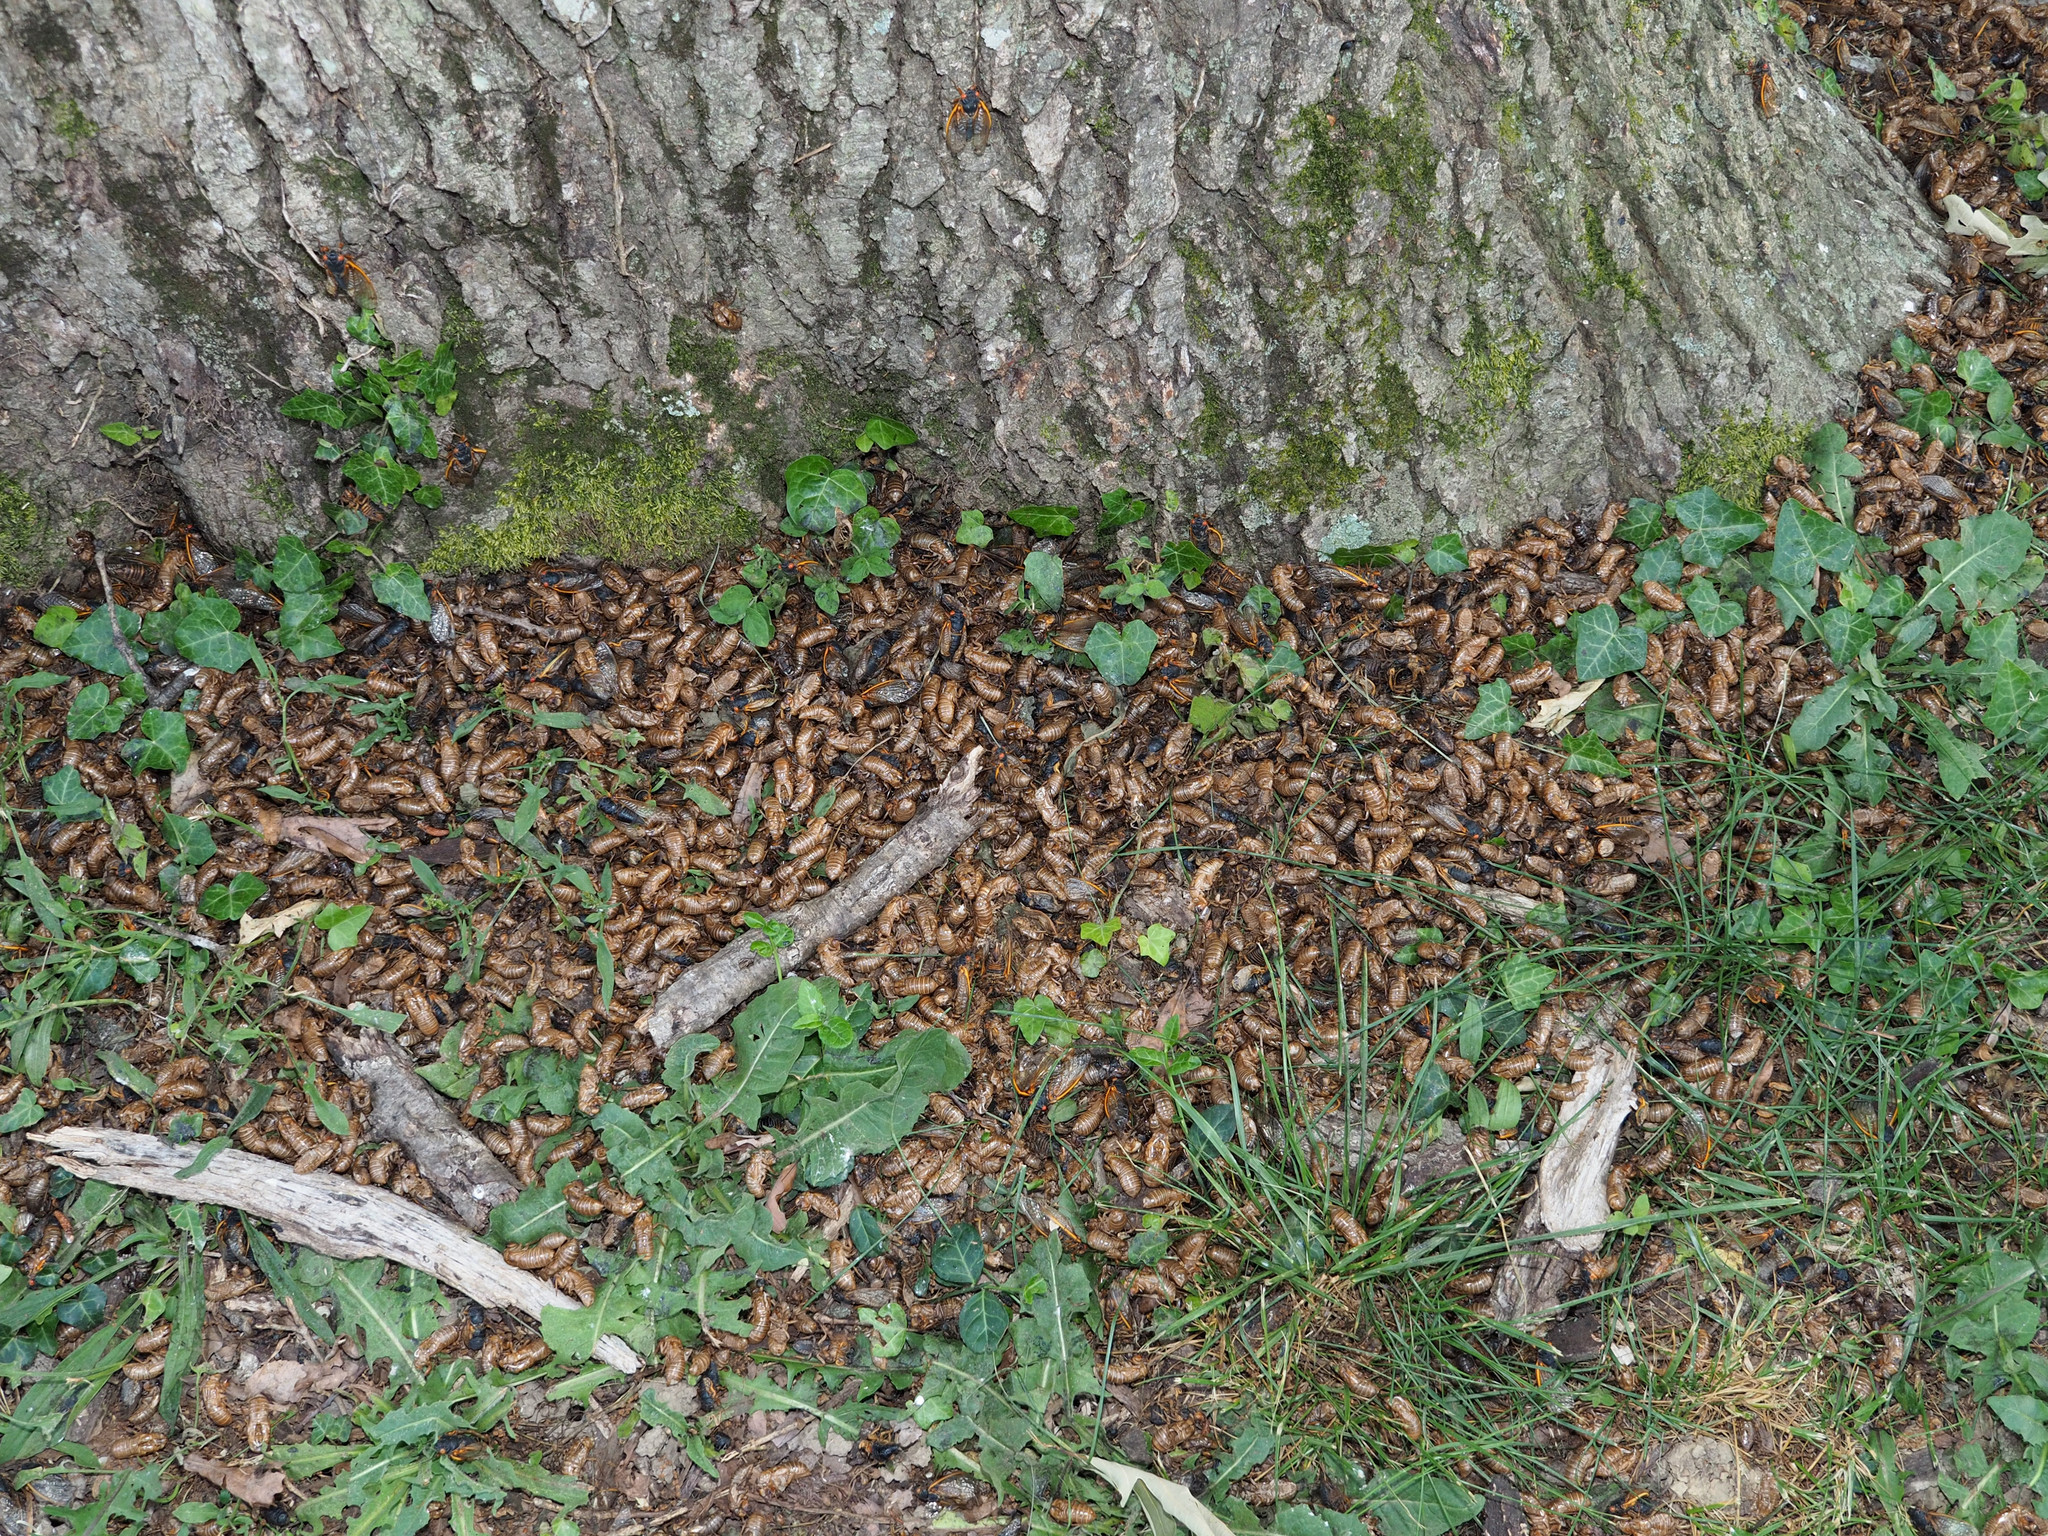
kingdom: Animalia
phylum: Arthropoda
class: Insecta
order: Hemiptera
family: Cicadidae
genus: Magicicada
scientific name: Magicicada
